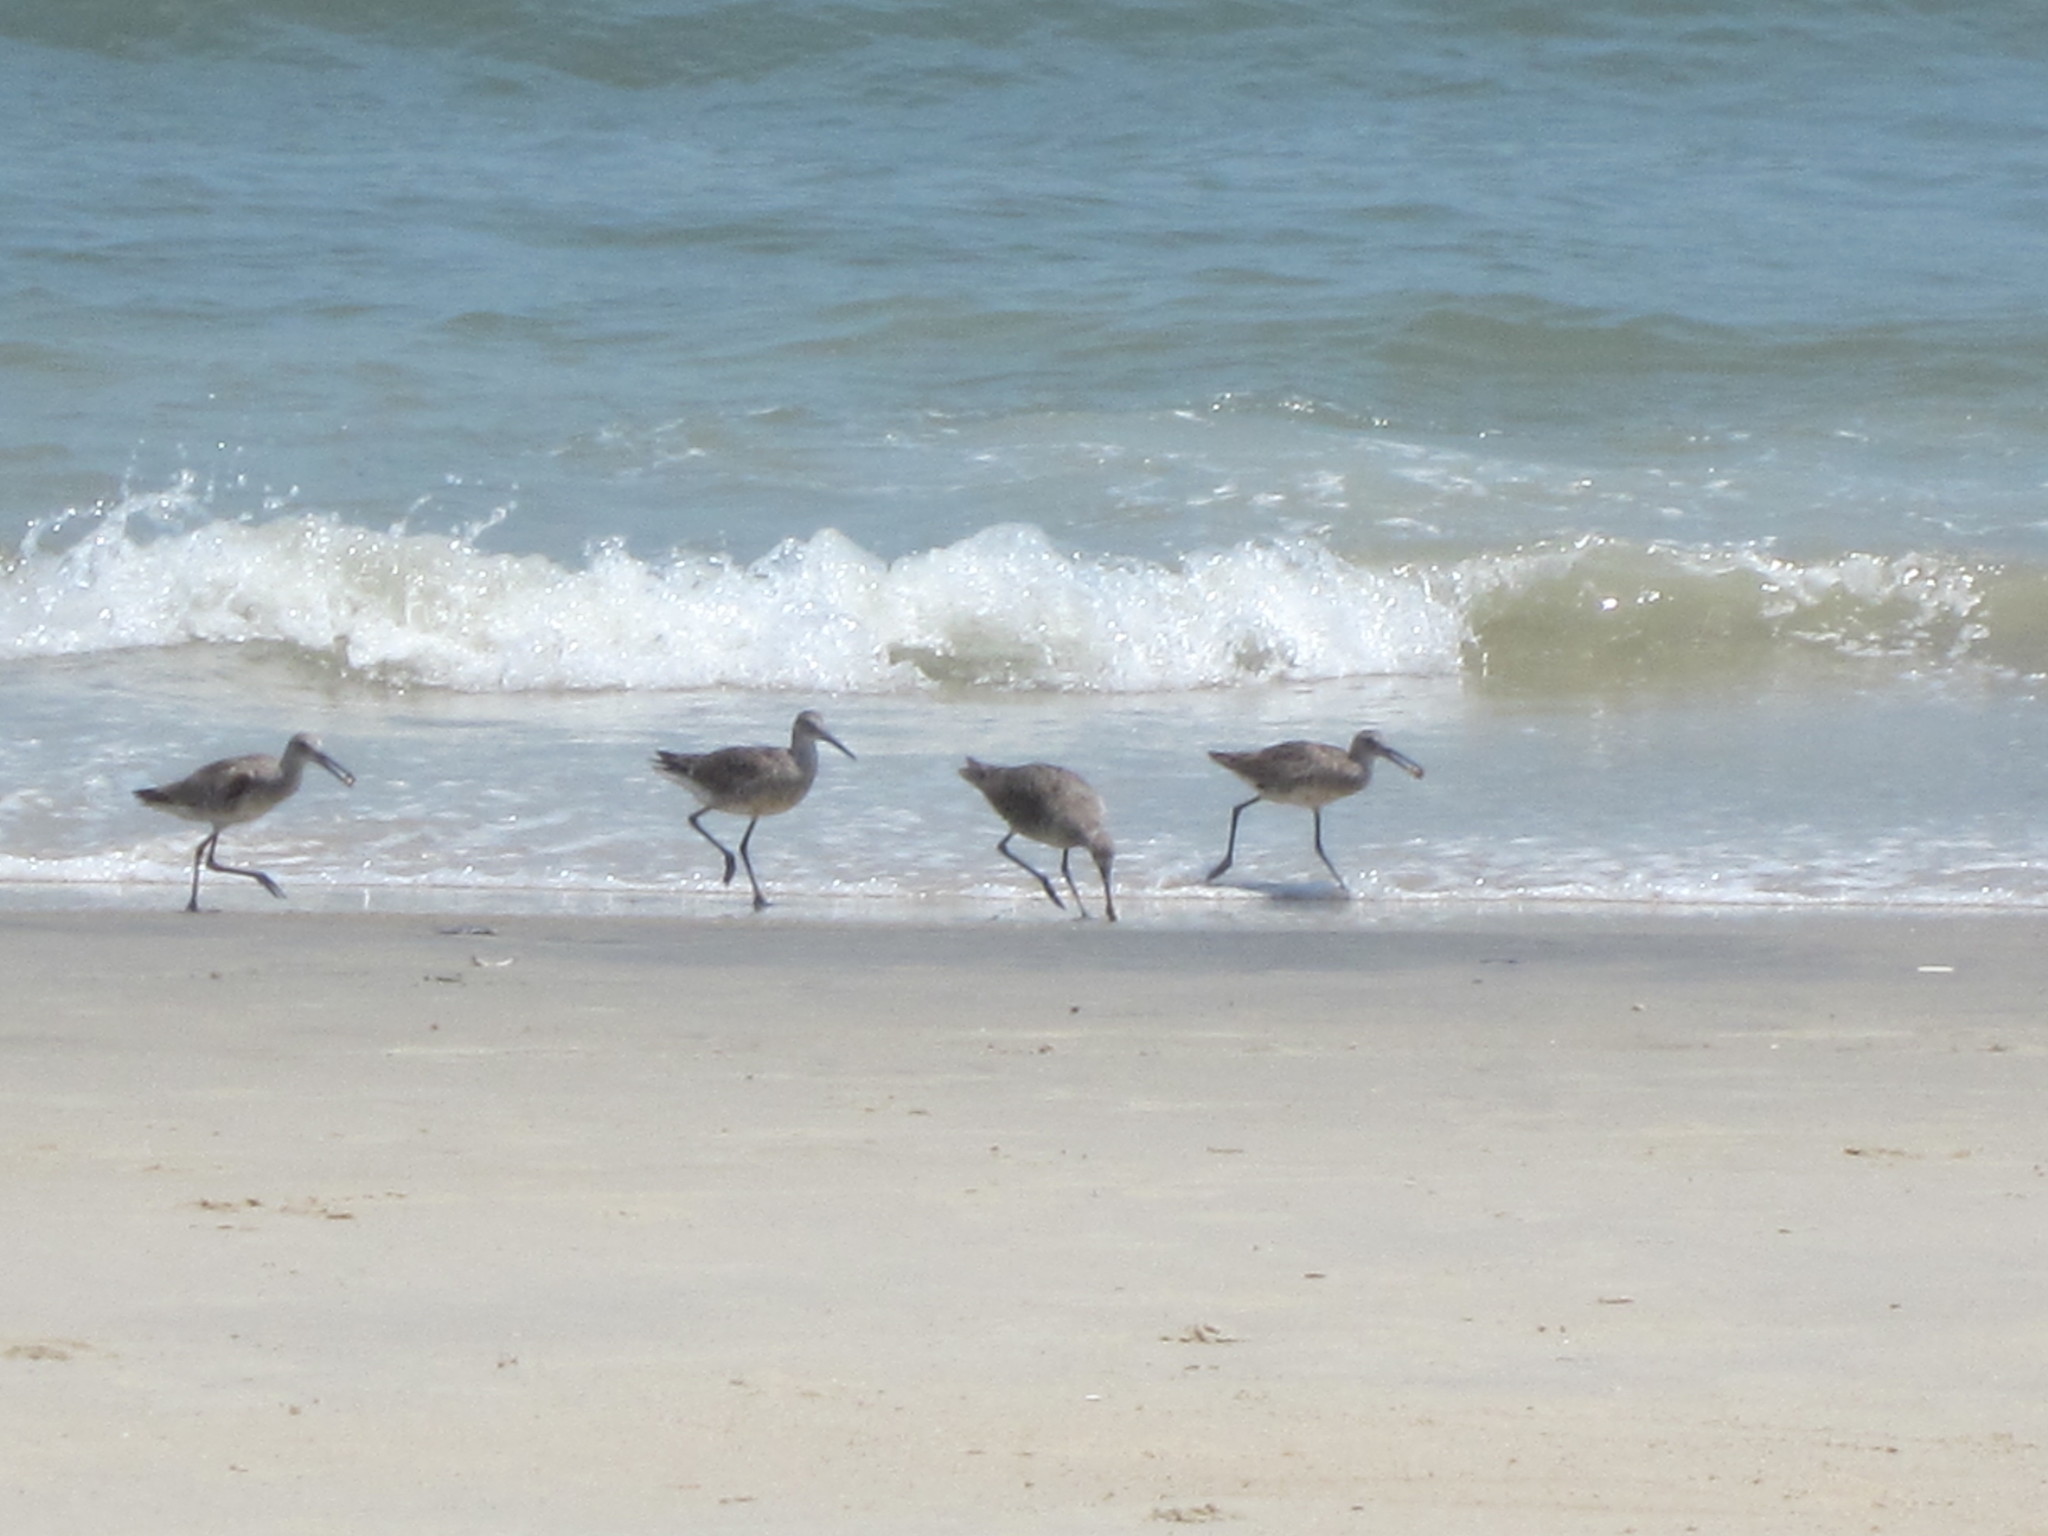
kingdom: Animalia
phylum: Chordata
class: Aves
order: Charadriiformes
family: Scolopacidae
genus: Tringa
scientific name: Tringa semipalmata
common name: Willet
